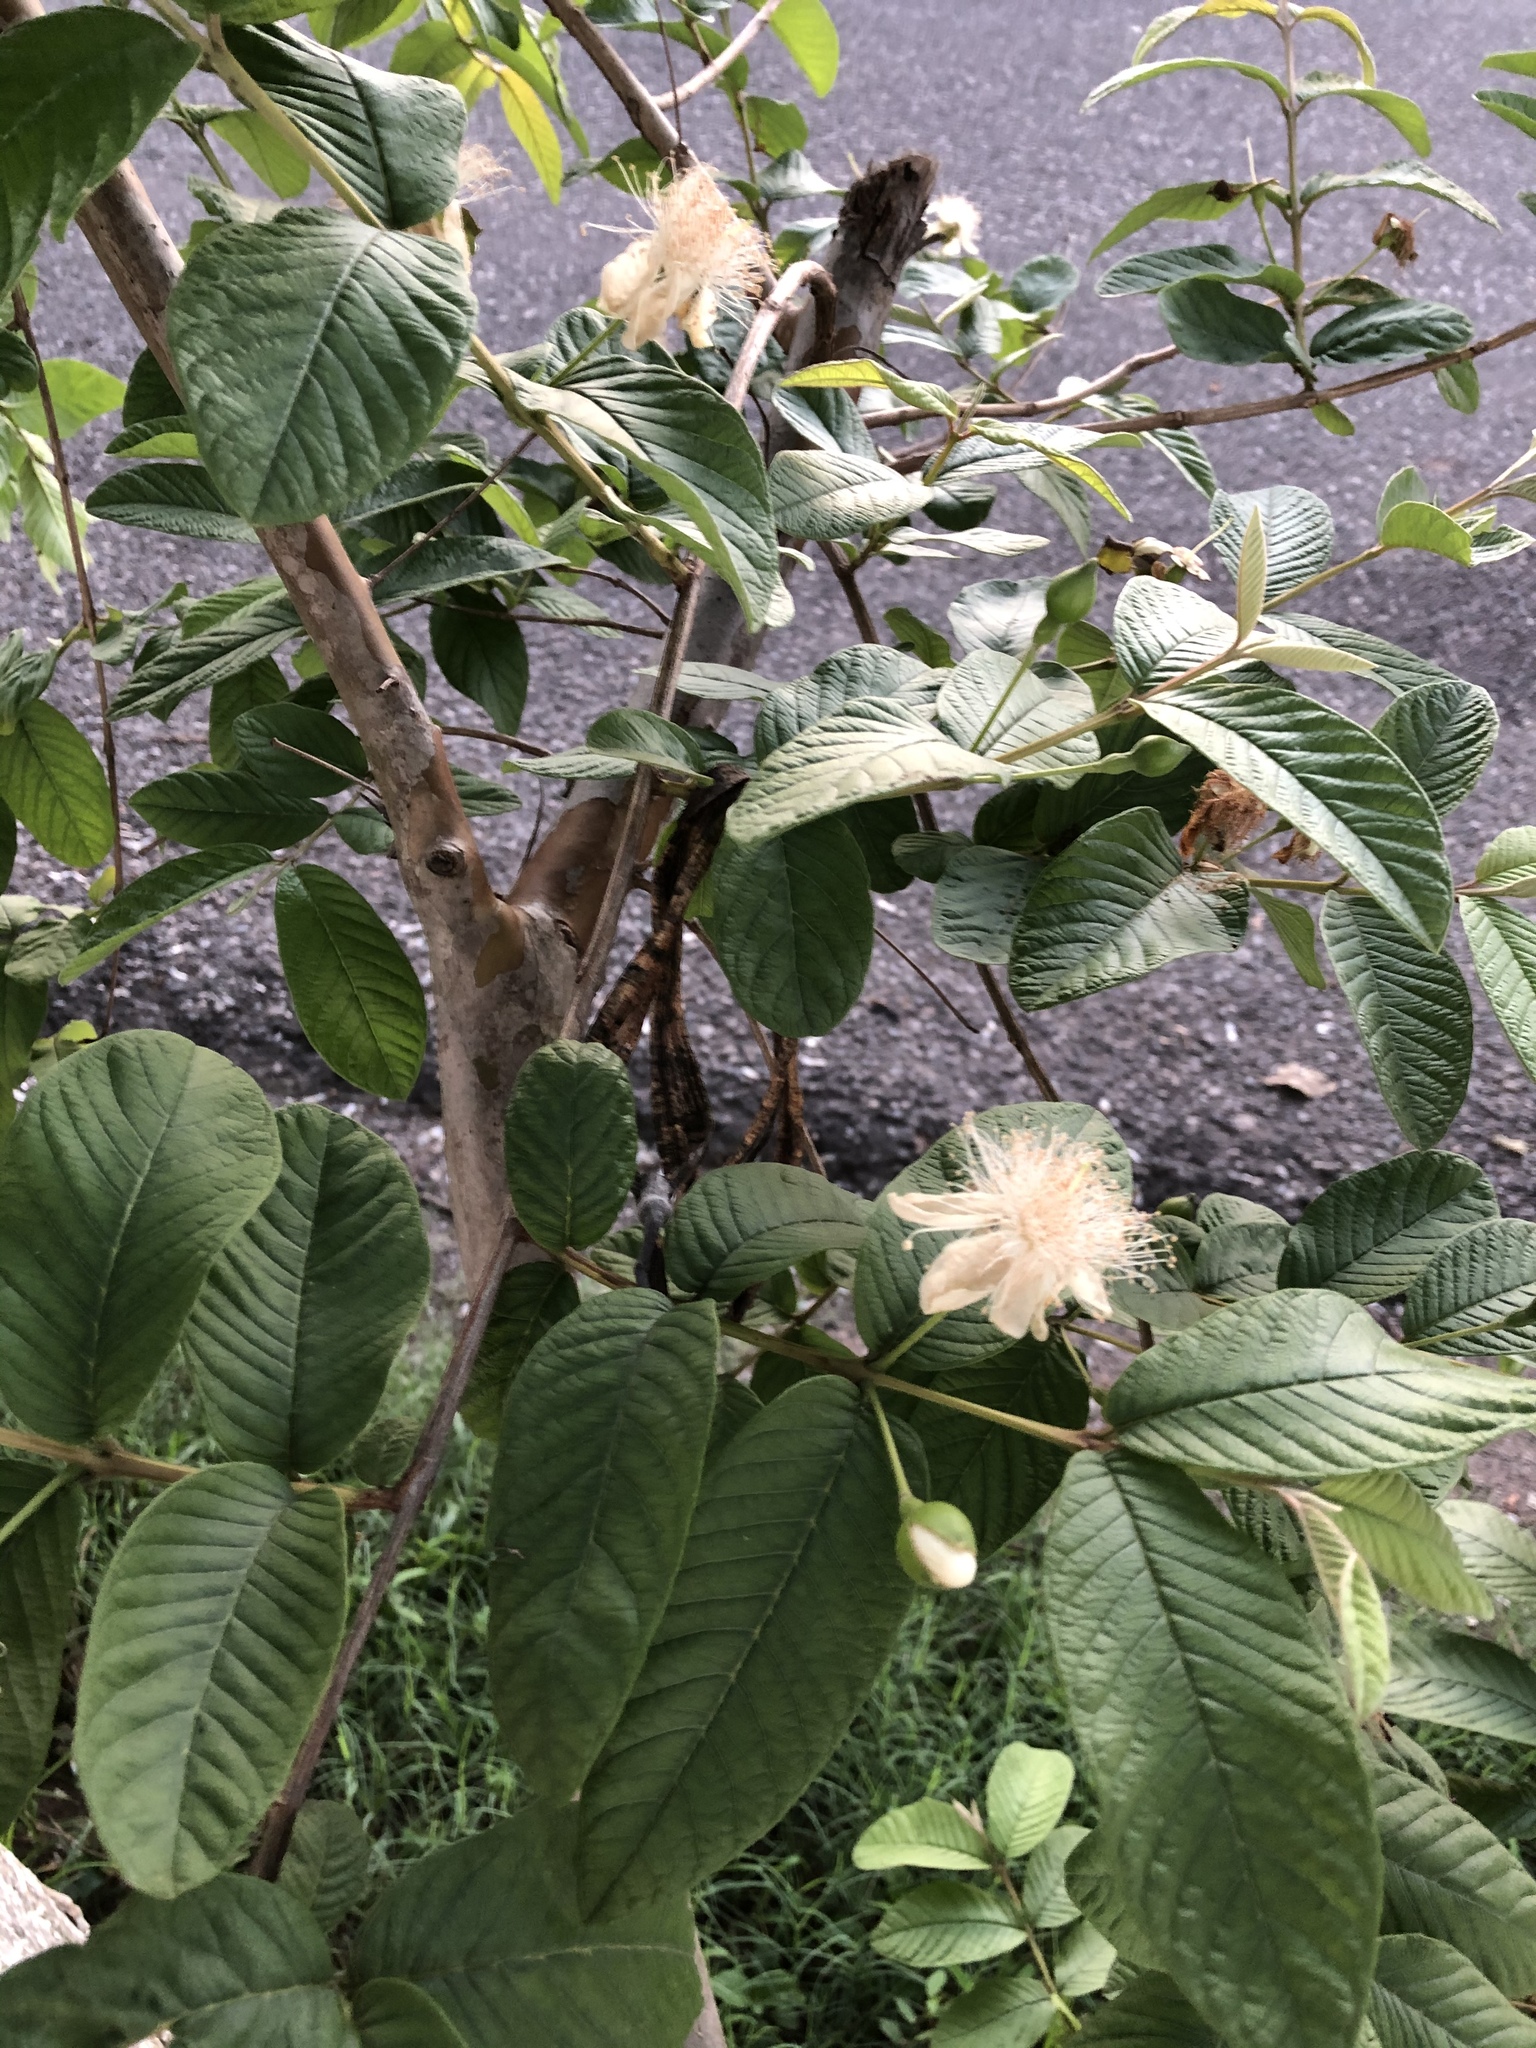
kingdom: Plantae
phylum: Tracheophyta
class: Magnoliopsida
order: Myrtales
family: Myrtaceae
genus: Psidium
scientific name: Psidium guajava
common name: Guava
